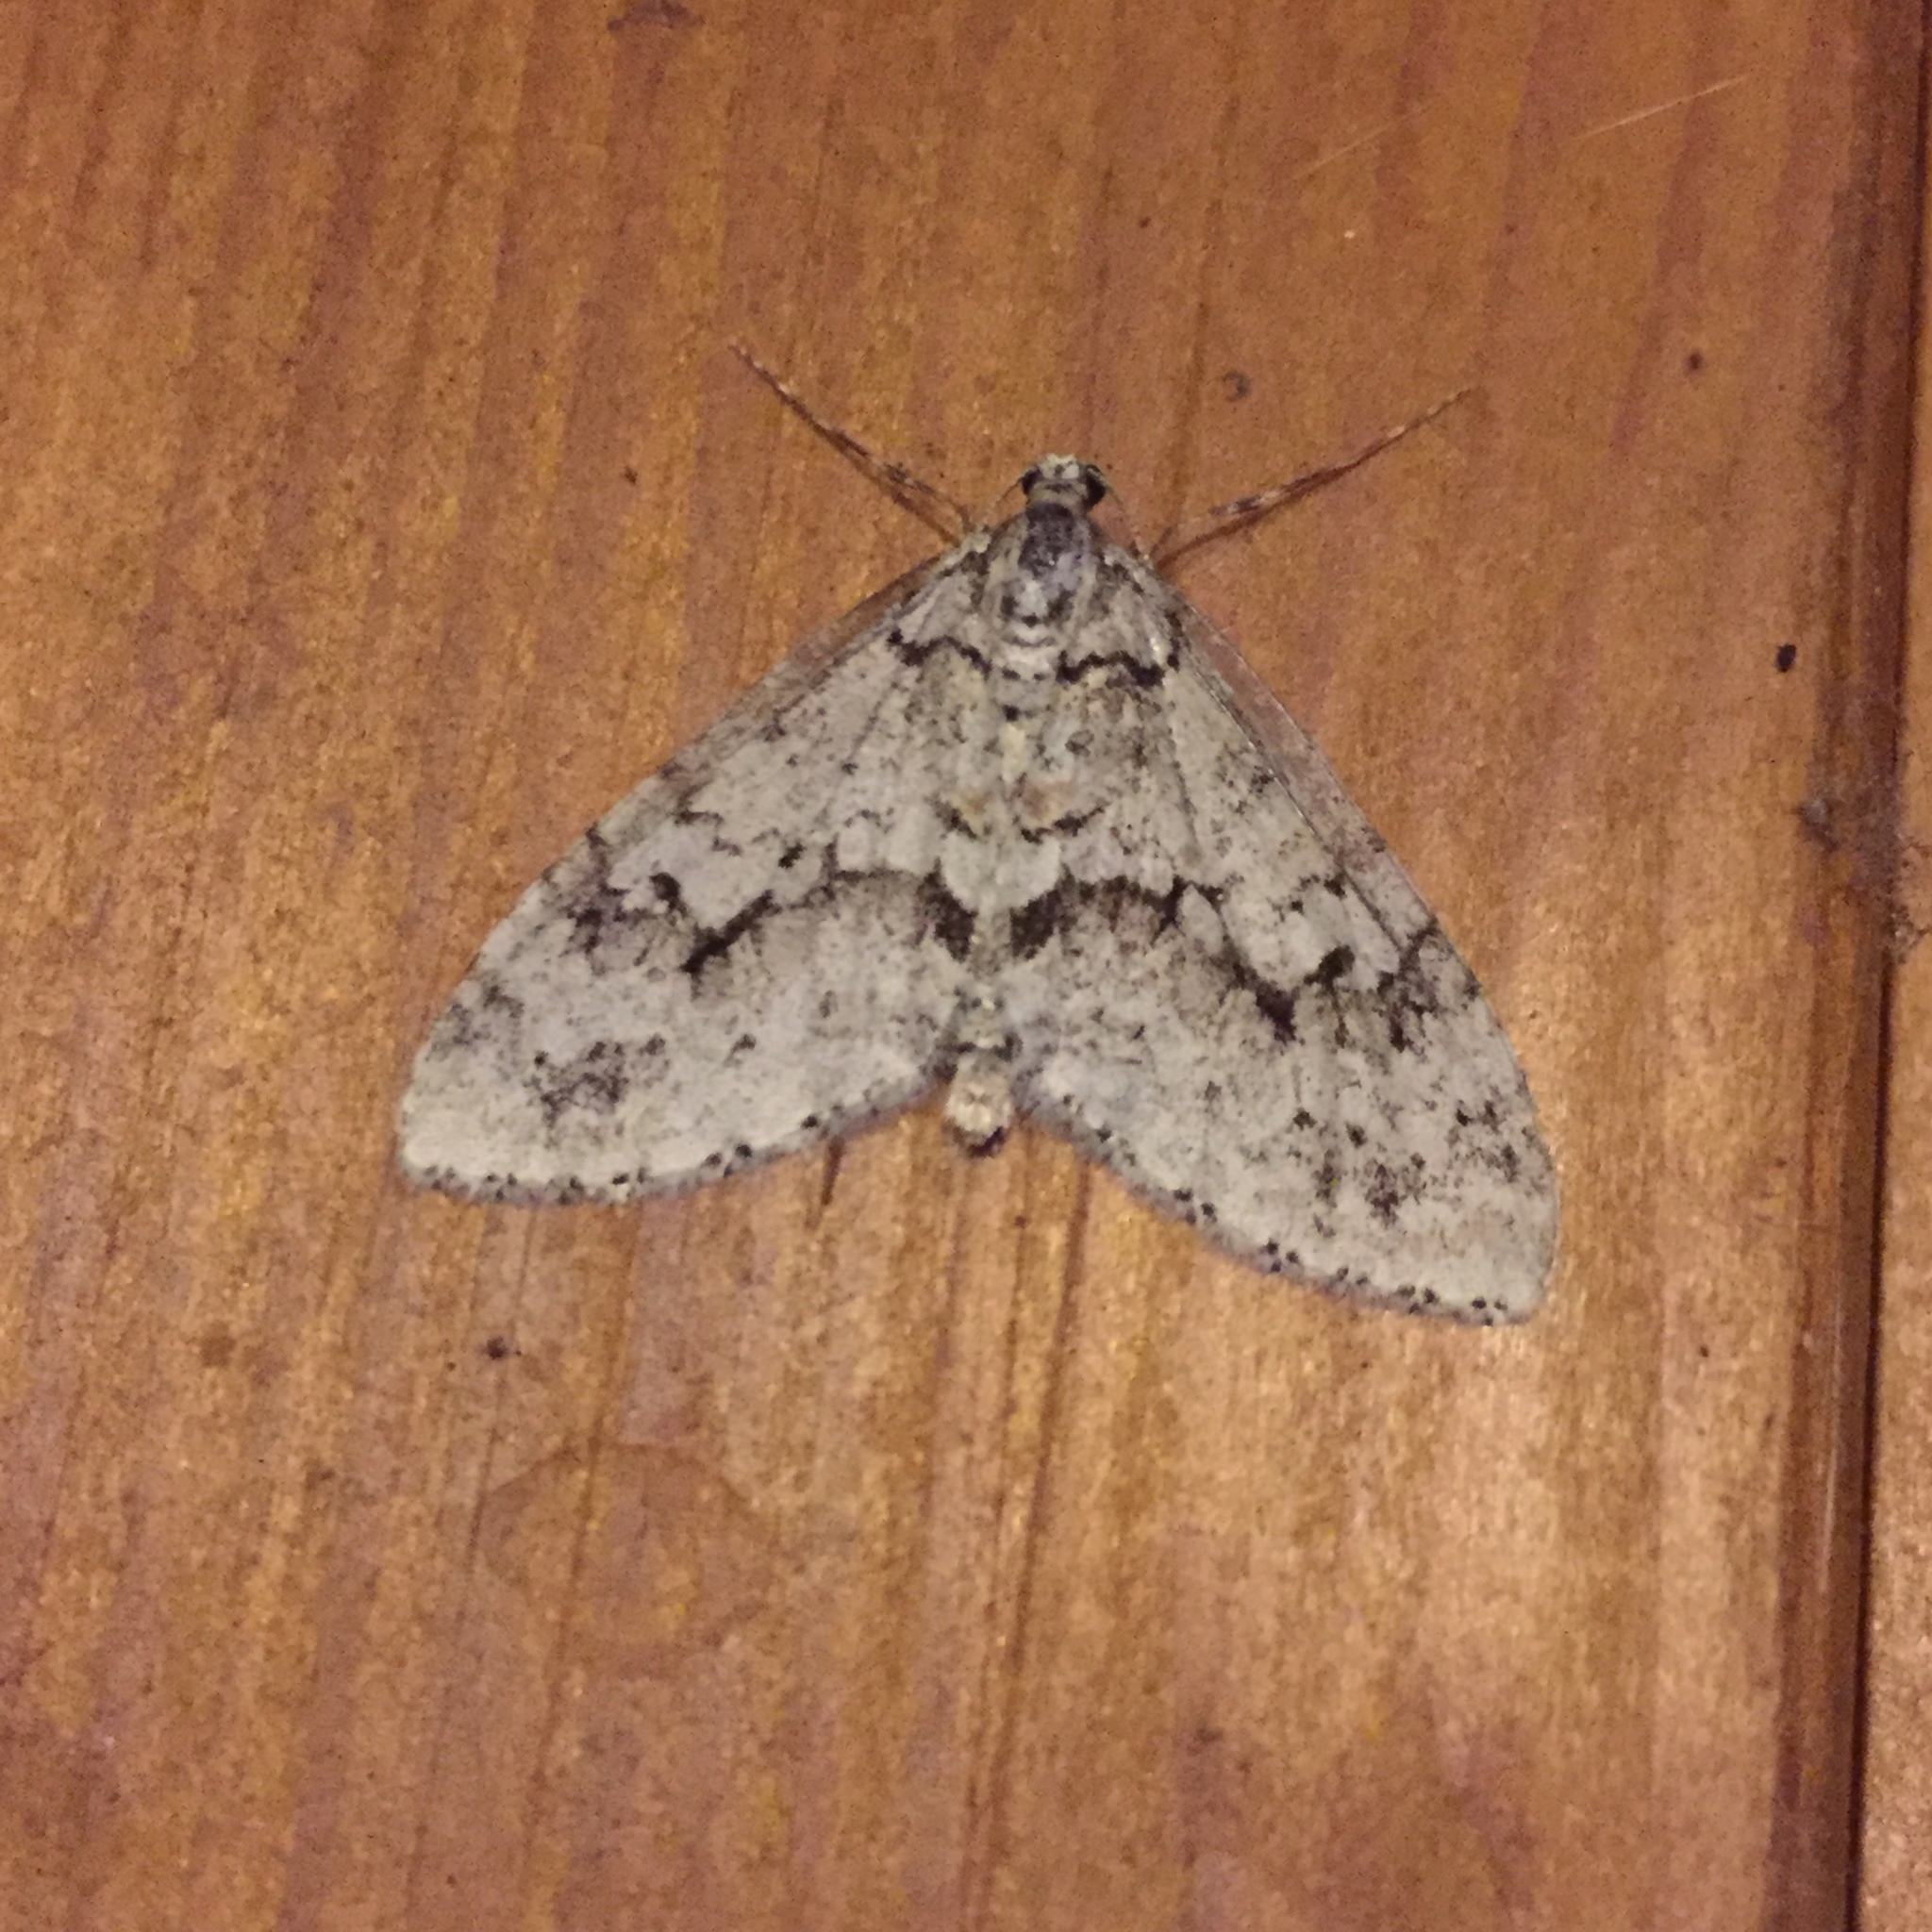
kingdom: Animalia
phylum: Arthropoda
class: Insecta
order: Lepidoptera
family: Geometridae
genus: Cladara
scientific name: Cladara limitaria
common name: Mottled gray carpet
